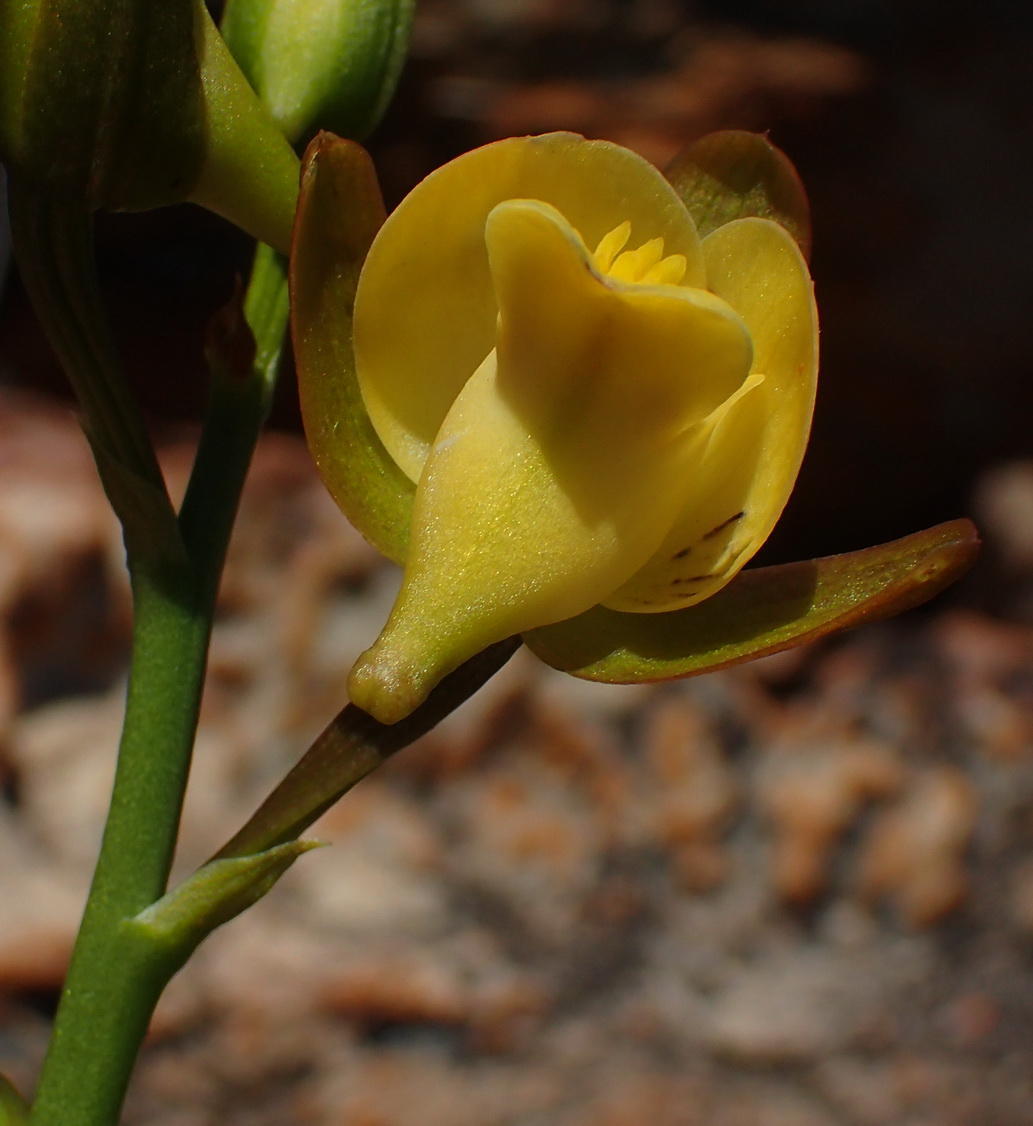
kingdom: Plantae
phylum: Tracheophyta
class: Liliopsida
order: Asparagales
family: Orchidaceae
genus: Eulophia
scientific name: Eulophia platypetala
